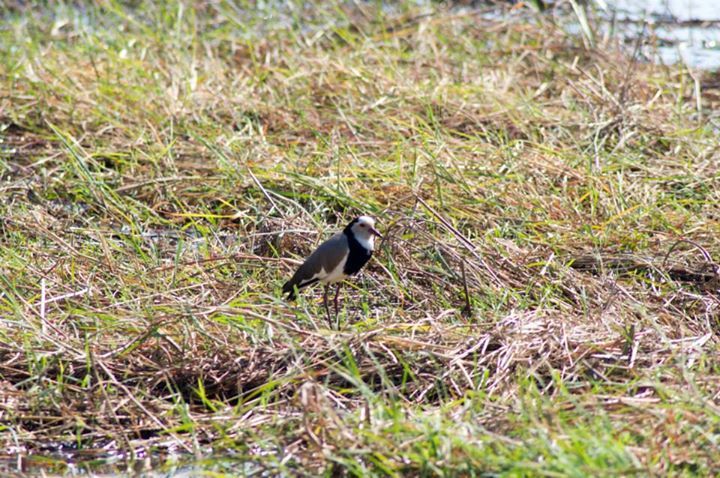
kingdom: Animalia
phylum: Chordata
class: Aves
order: Charadriiformes
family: Charadriidae
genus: Vanellus
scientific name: Vanellus crassirostris
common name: Long-toed lapwing
